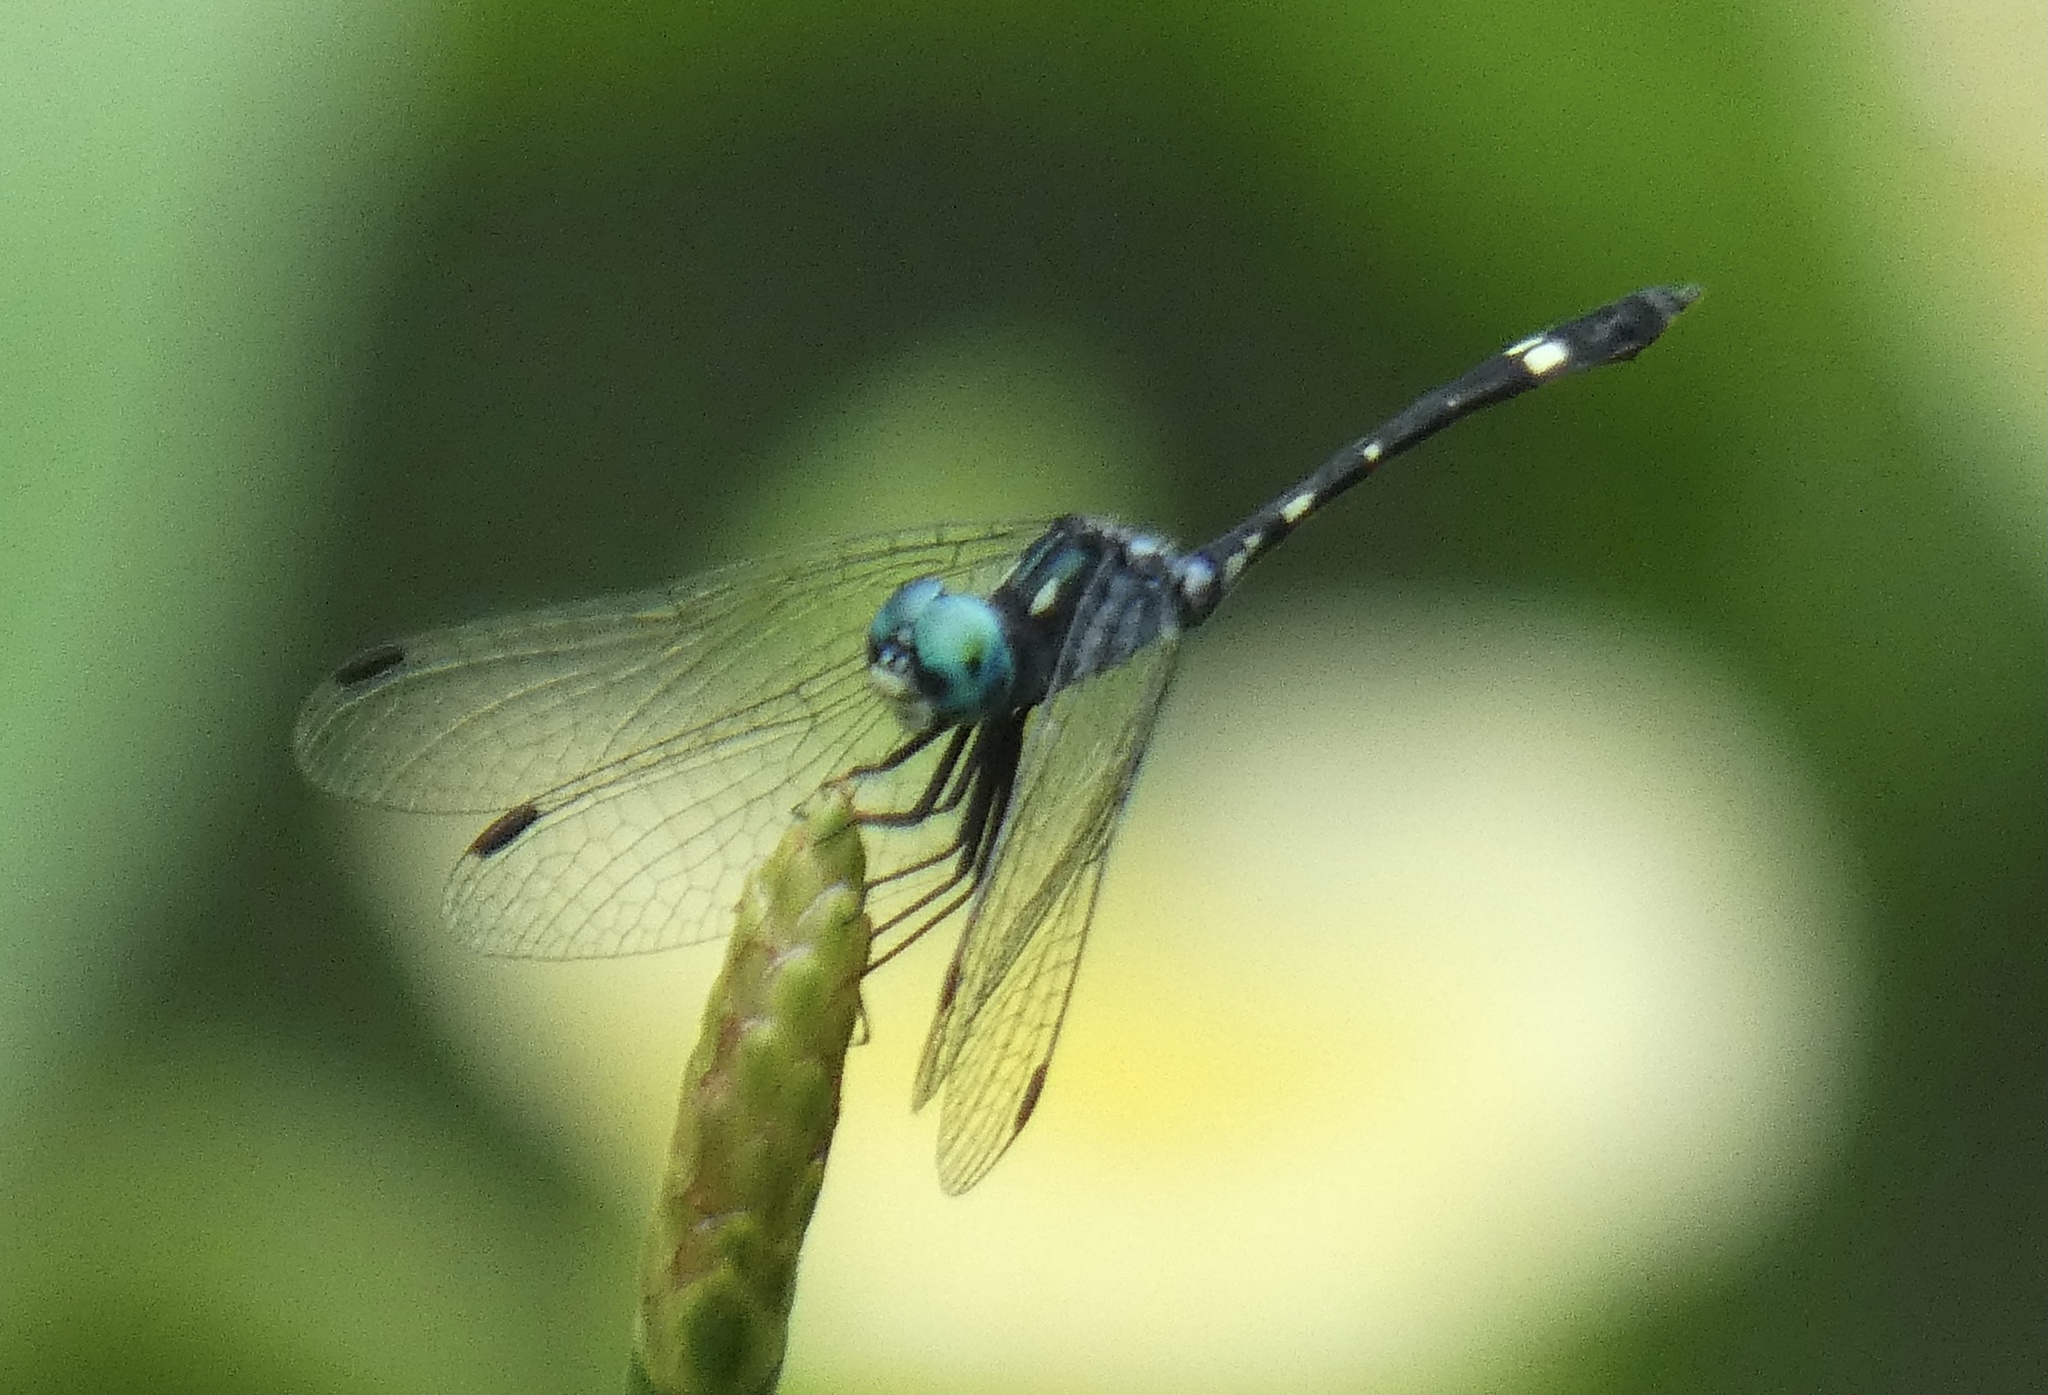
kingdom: Animalia
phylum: Arthropoda
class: Insecta
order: Odonata
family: Libellulidae
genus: Nephepeltia
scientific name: Nephepeltia phryne
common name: Spine-bellied dryad
